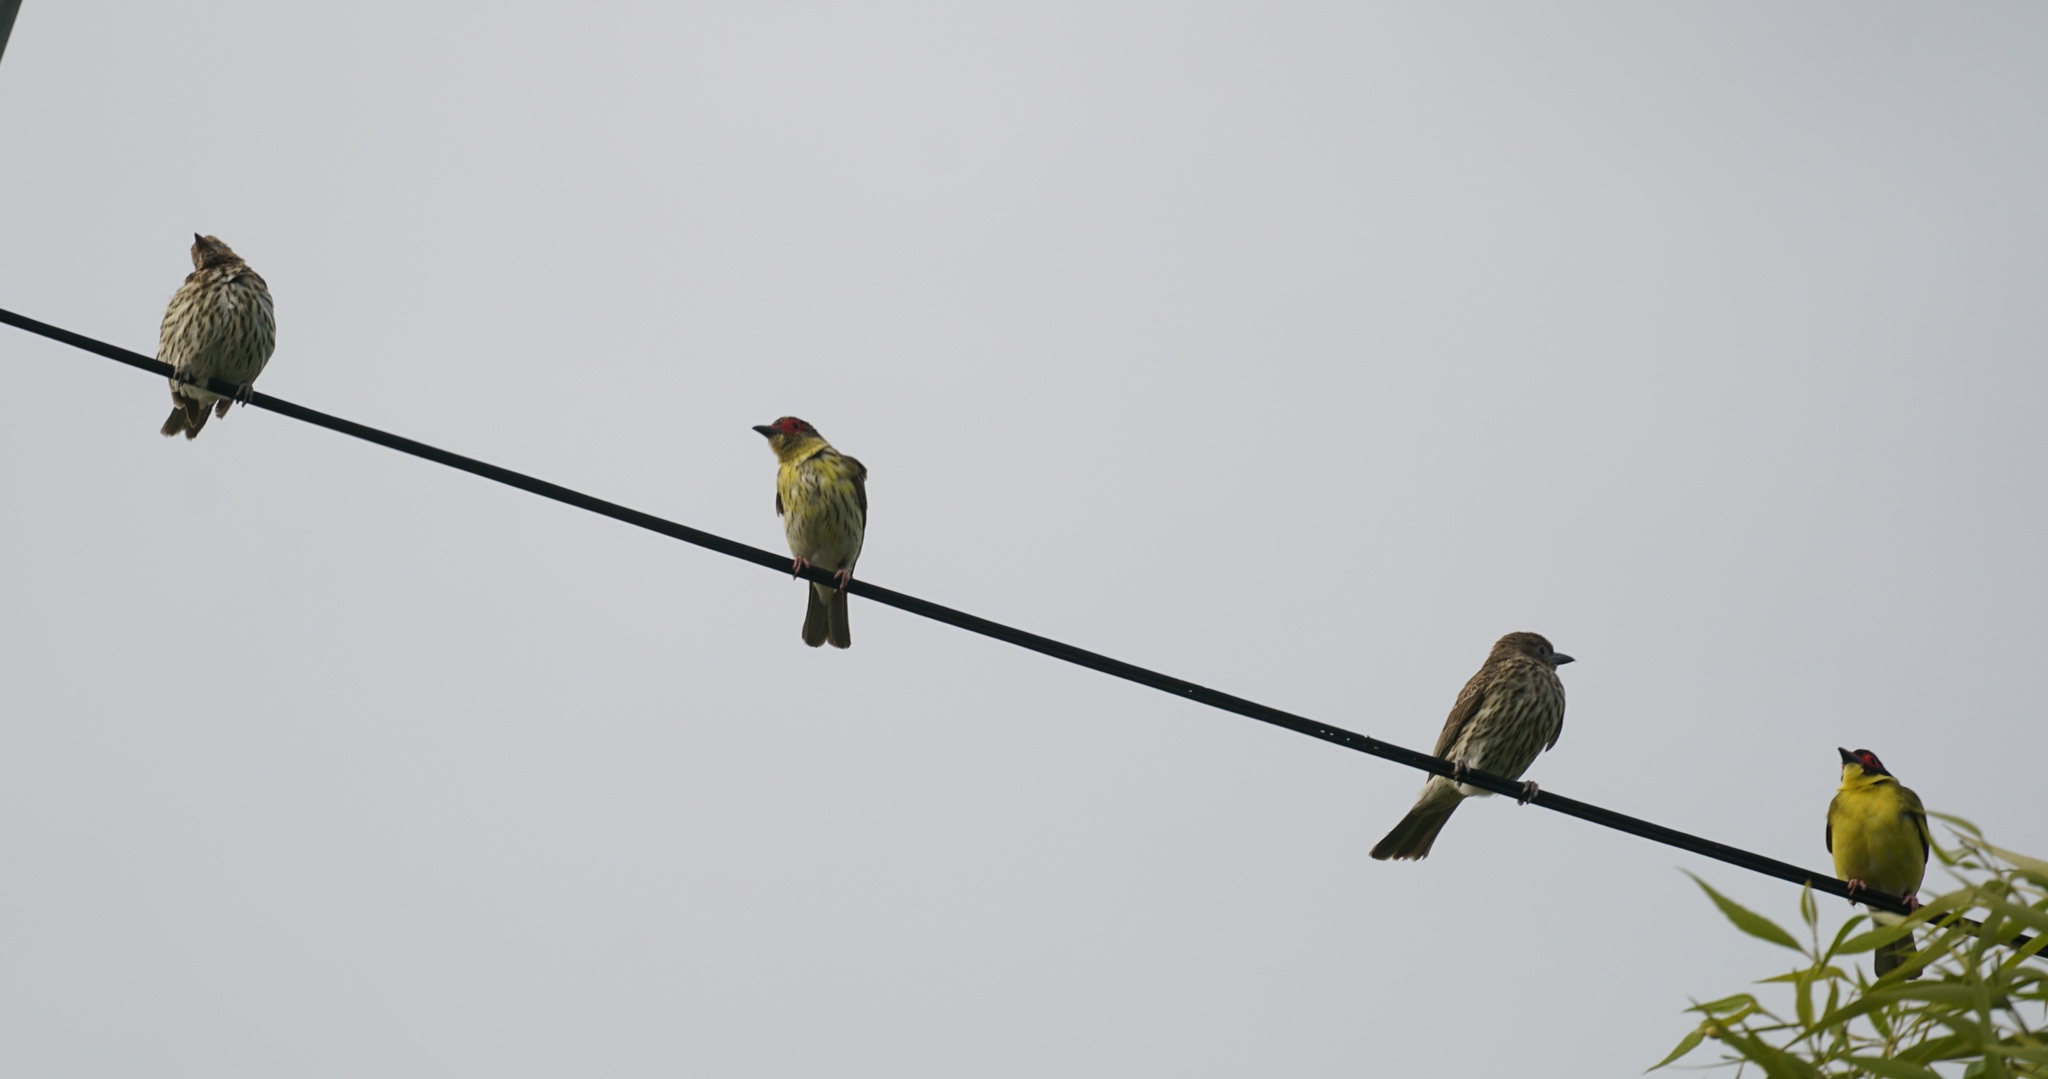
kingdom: Animalia
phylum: Chordata
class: Aves
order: Passeriformes
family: Oriolidae
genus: Sphecotheres
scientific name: Sphecotheres vieilloti
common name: Australasian figbird
